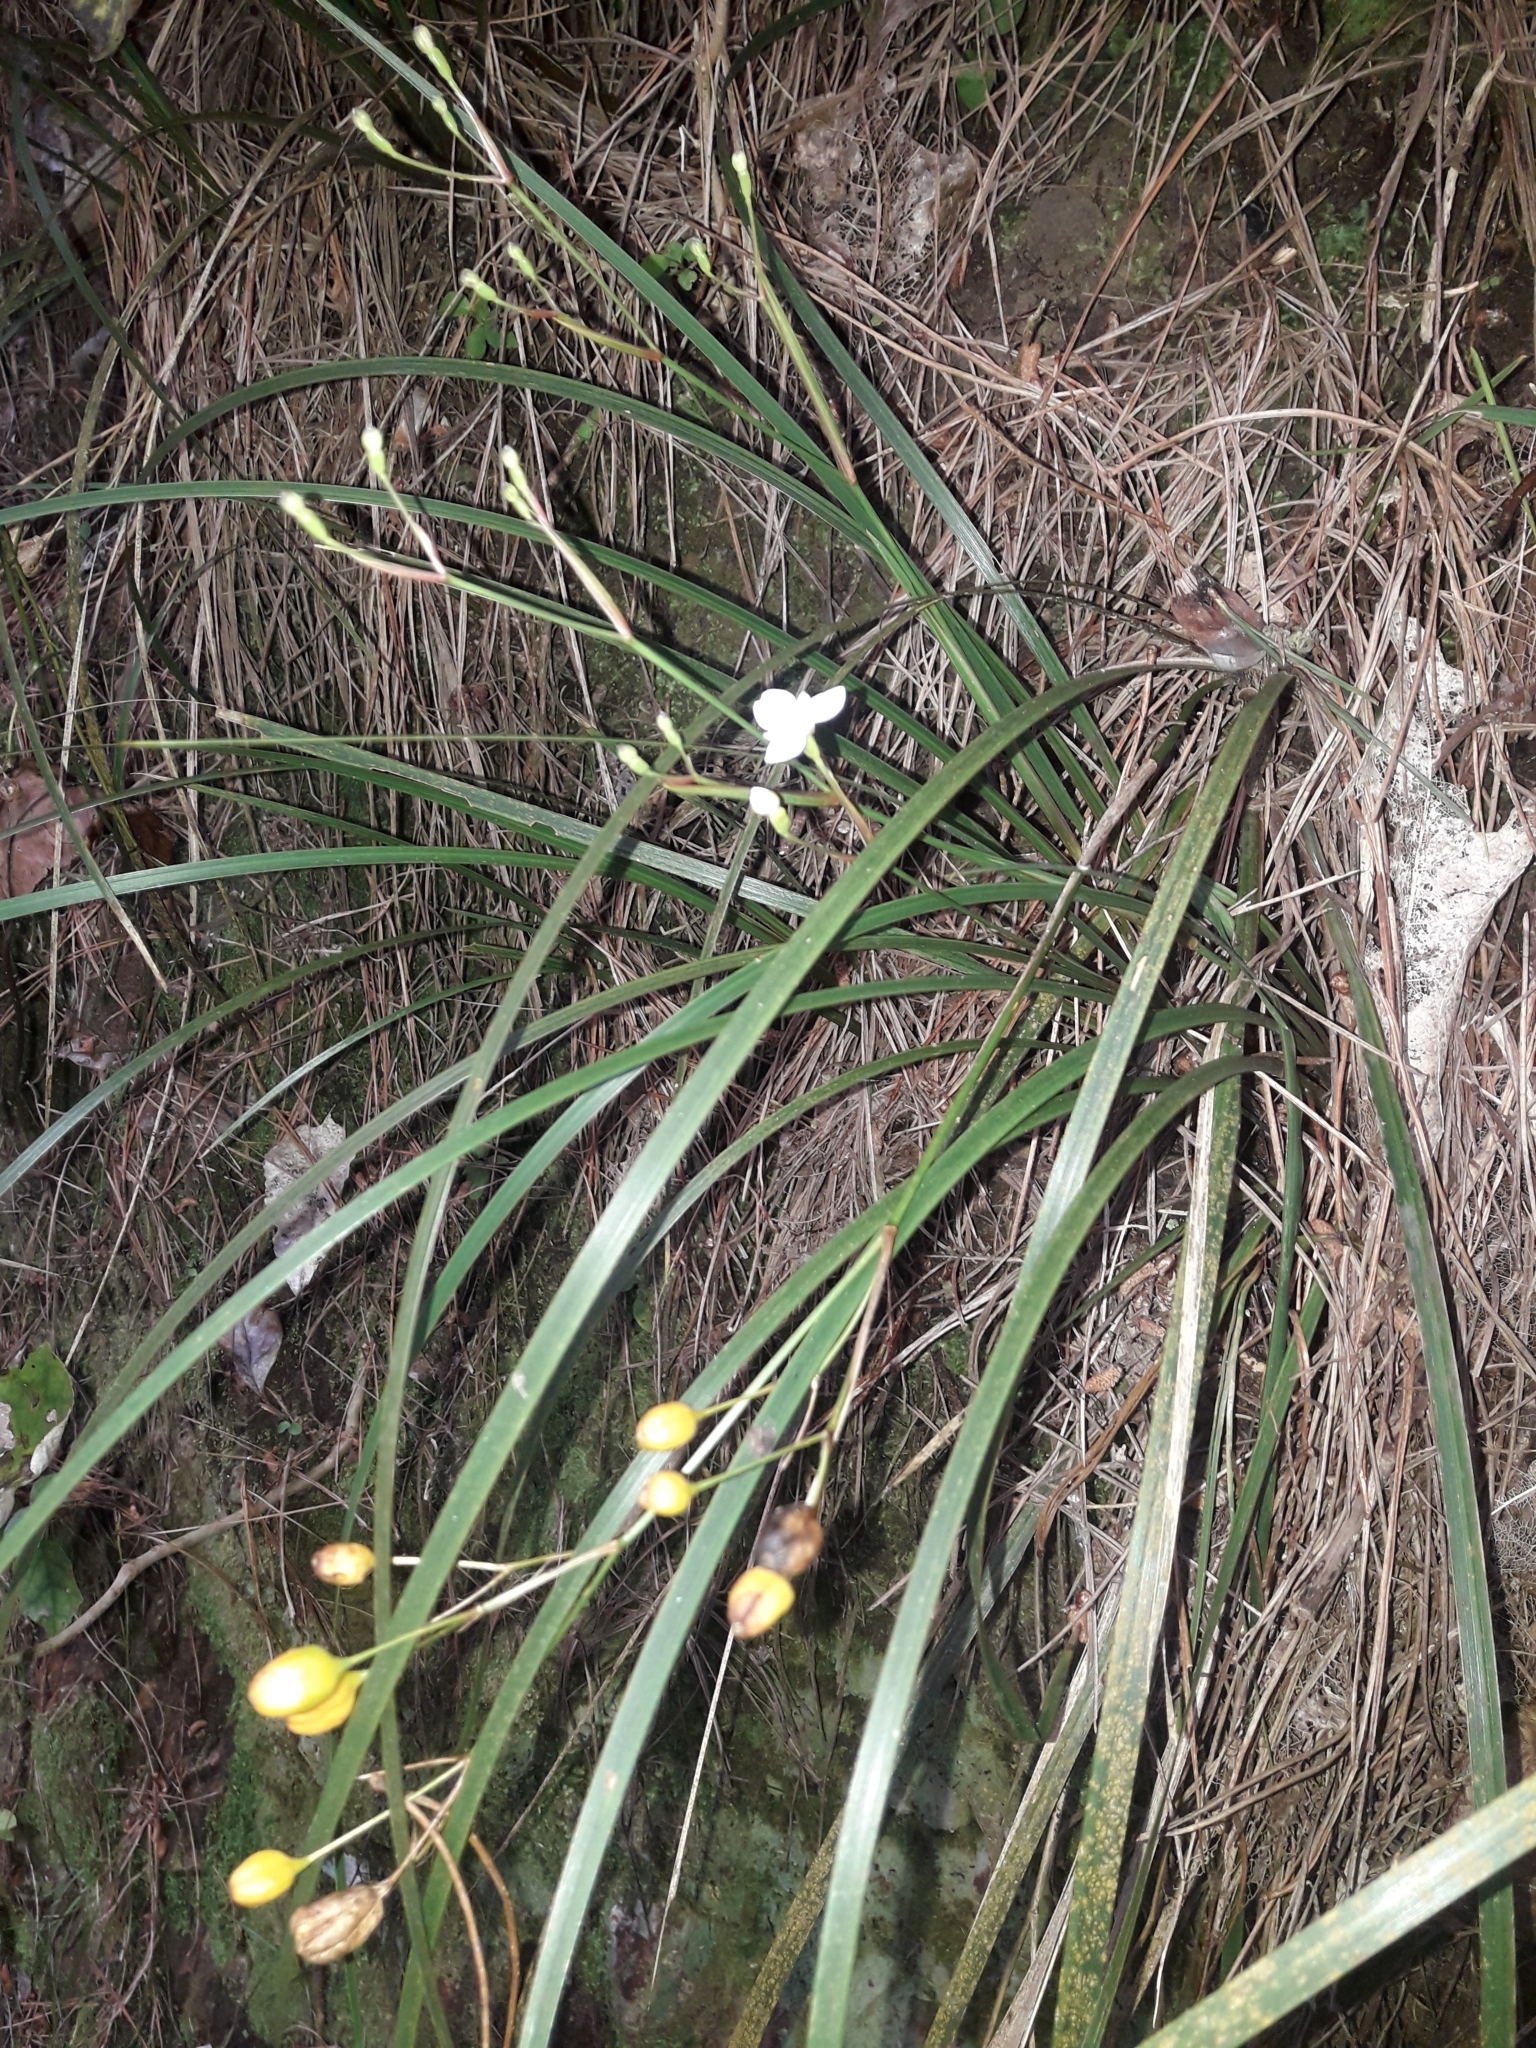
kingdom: Plantae
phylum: Tracheophyta
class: Liliopsida
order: Asparagales
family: Iridaceae
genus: Libertia
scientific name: Libertia ixioides
